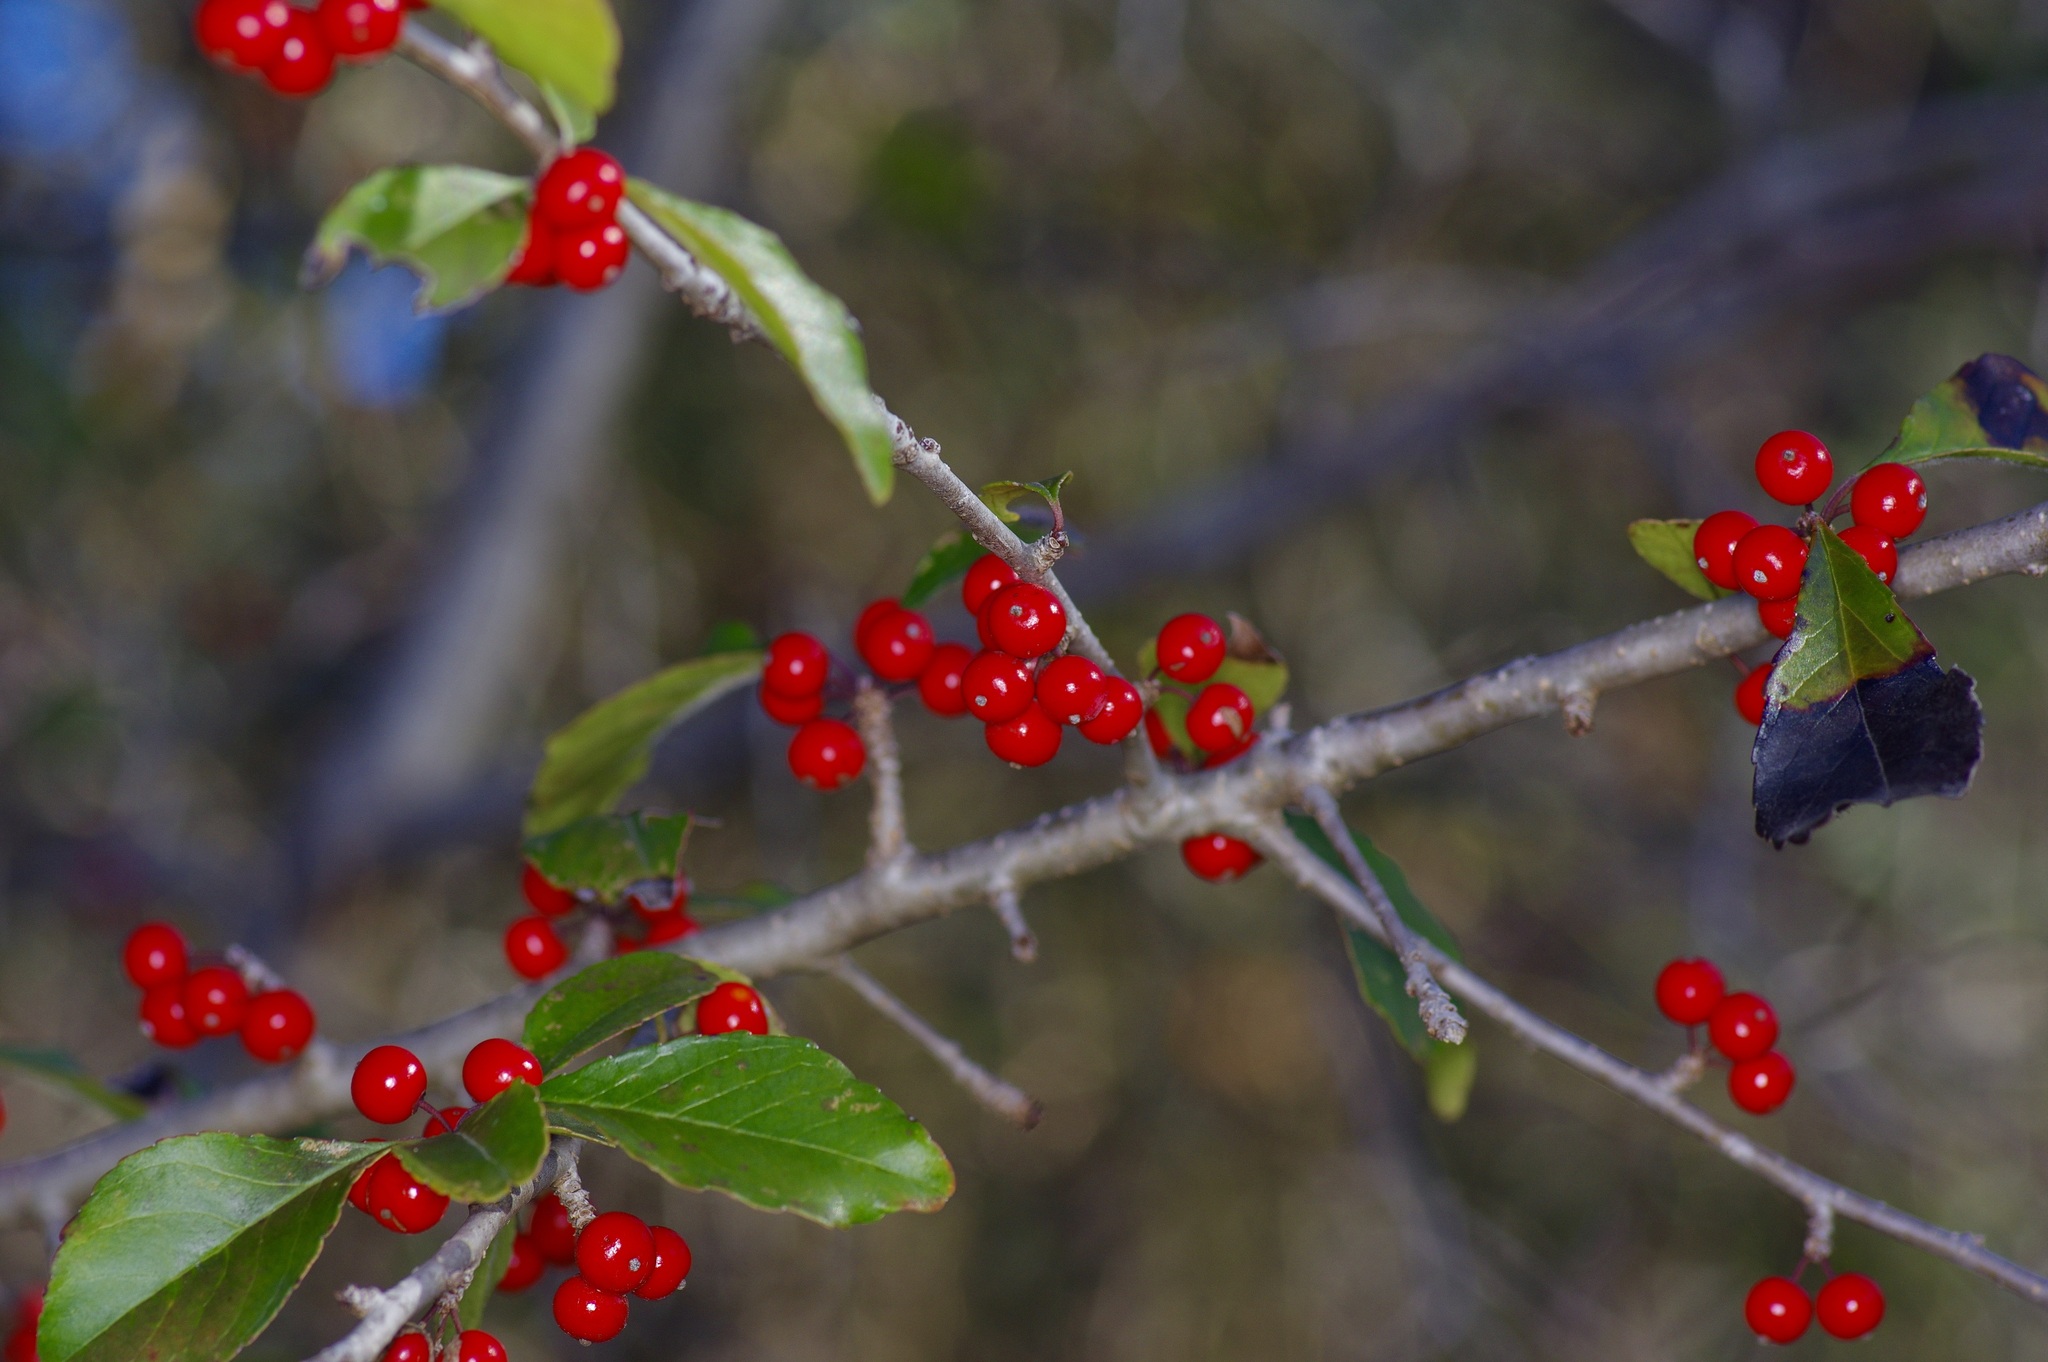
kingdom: Plantae
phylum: Tracheophyta
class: Magnoliopsida
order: Aquifoliales
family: Aquifoliaceae
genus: Ilex
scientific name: Ilex decidua
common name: Possum-haw
